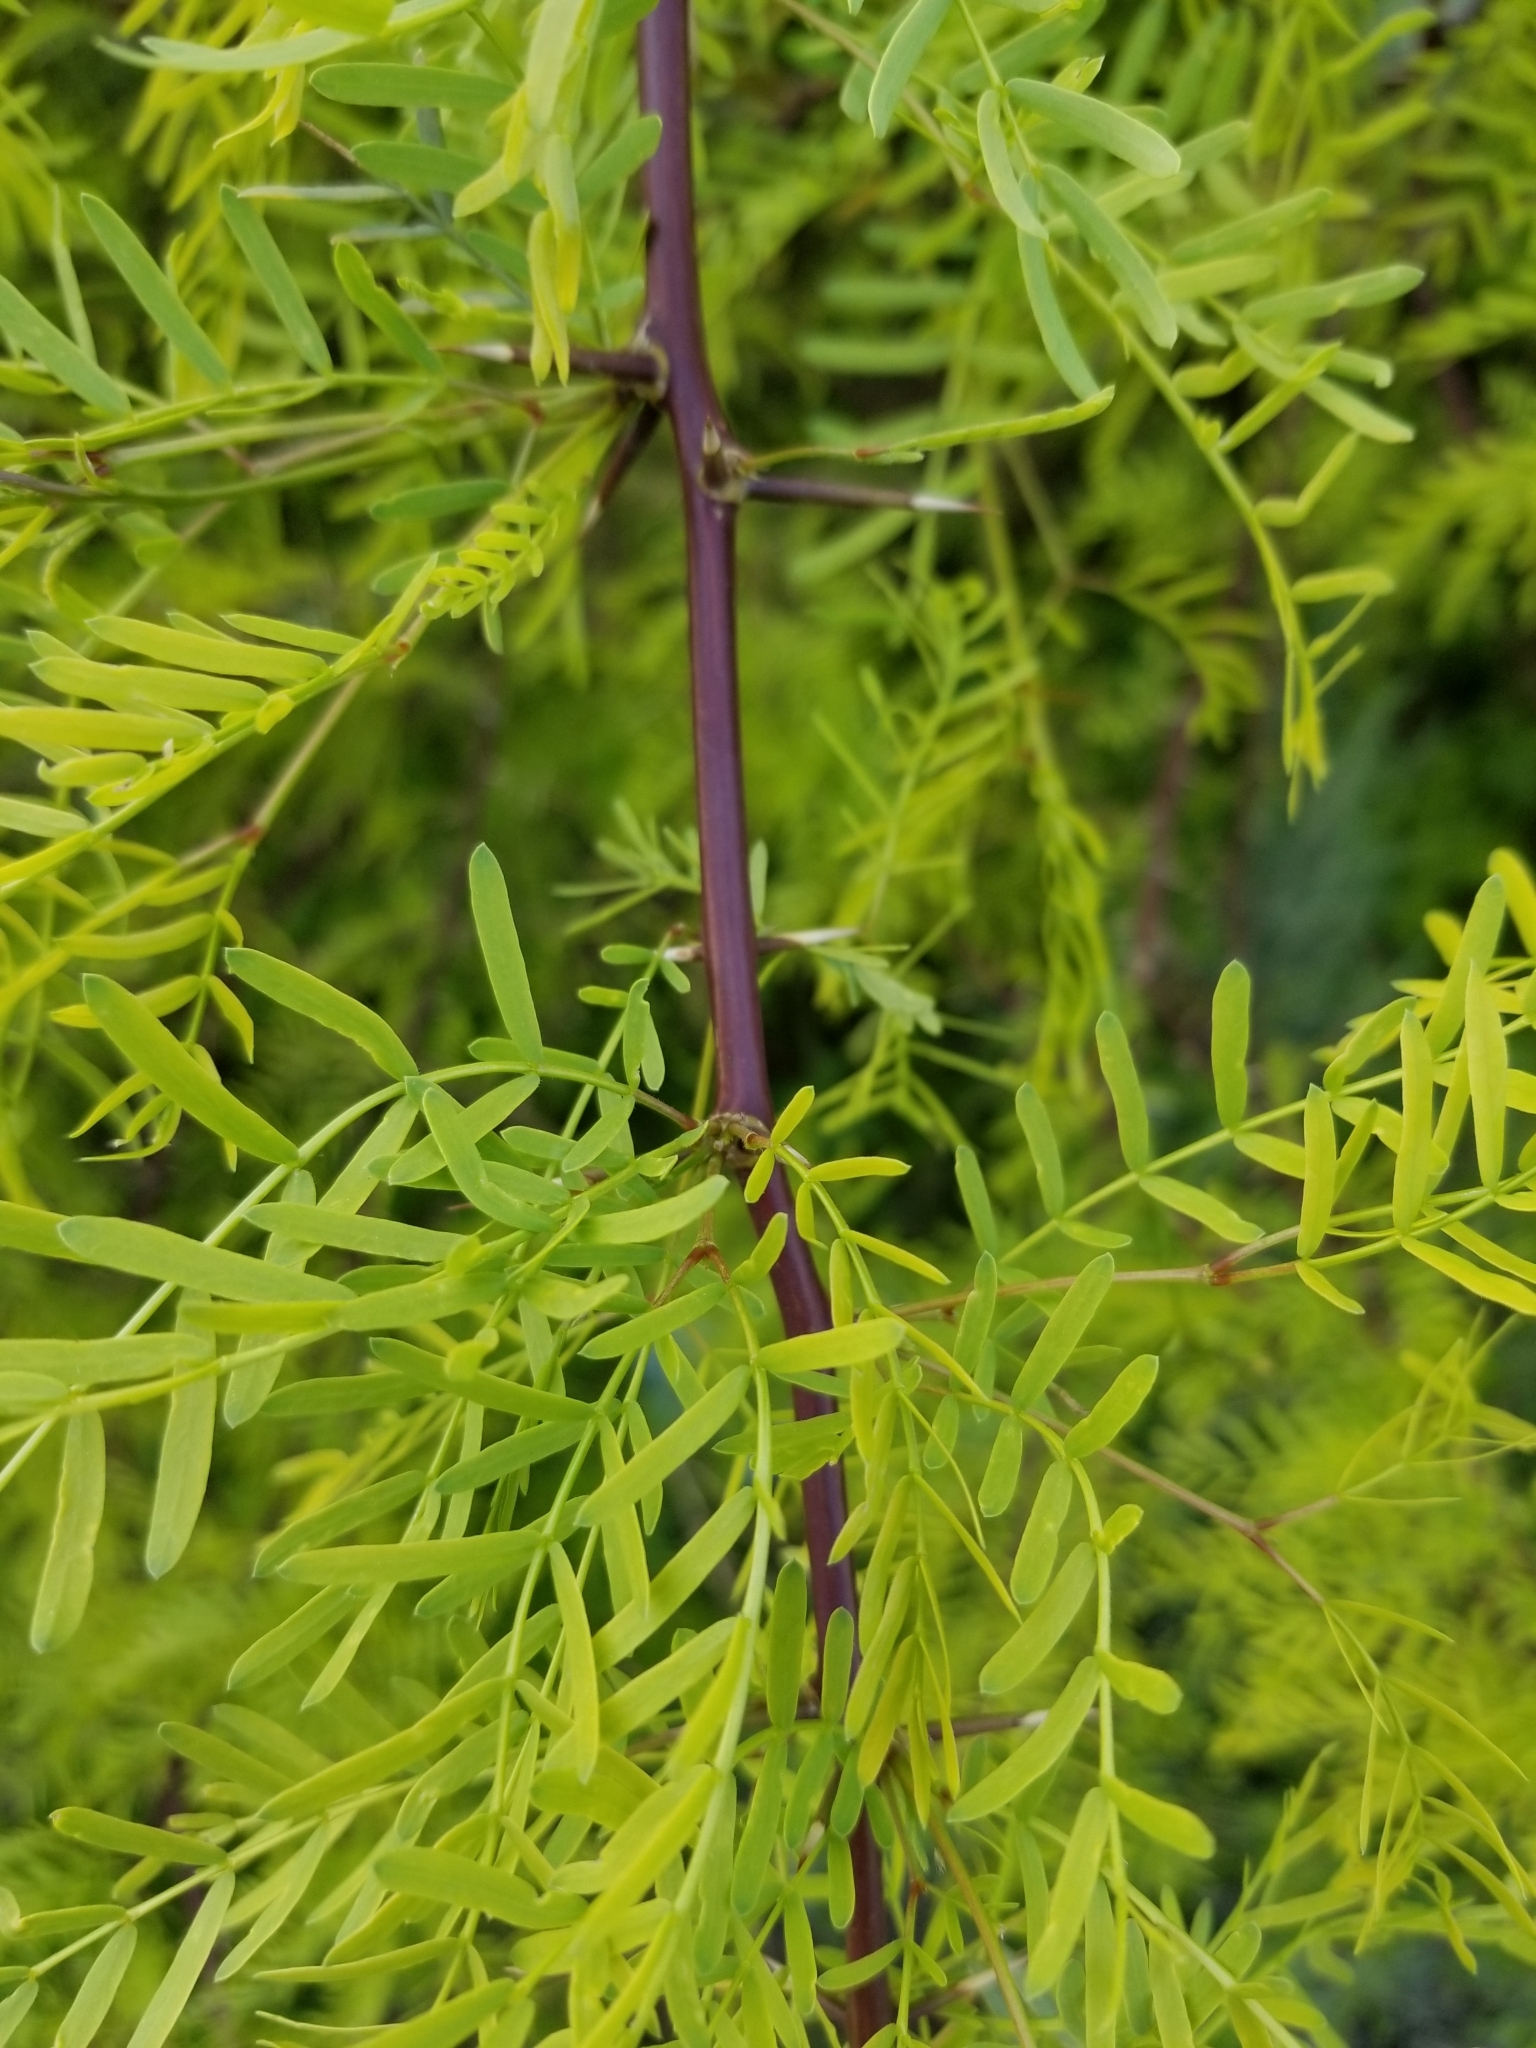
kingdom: Plantae
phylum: Tracheophyta
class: Magnoliopsida
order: Fabales
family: Fabaceae
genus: Prosopis
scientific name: Prosopis pubescens
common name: Screw-bean
